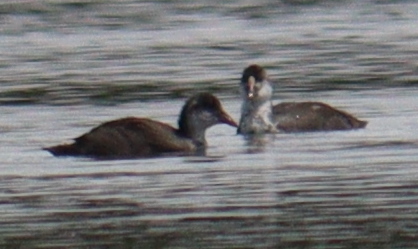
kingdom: Animalia
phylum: Chordata
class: Aves
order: Gruiformes
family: Rallidae
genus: Fulica
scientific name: Fulica atra
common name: Eurasian coot
